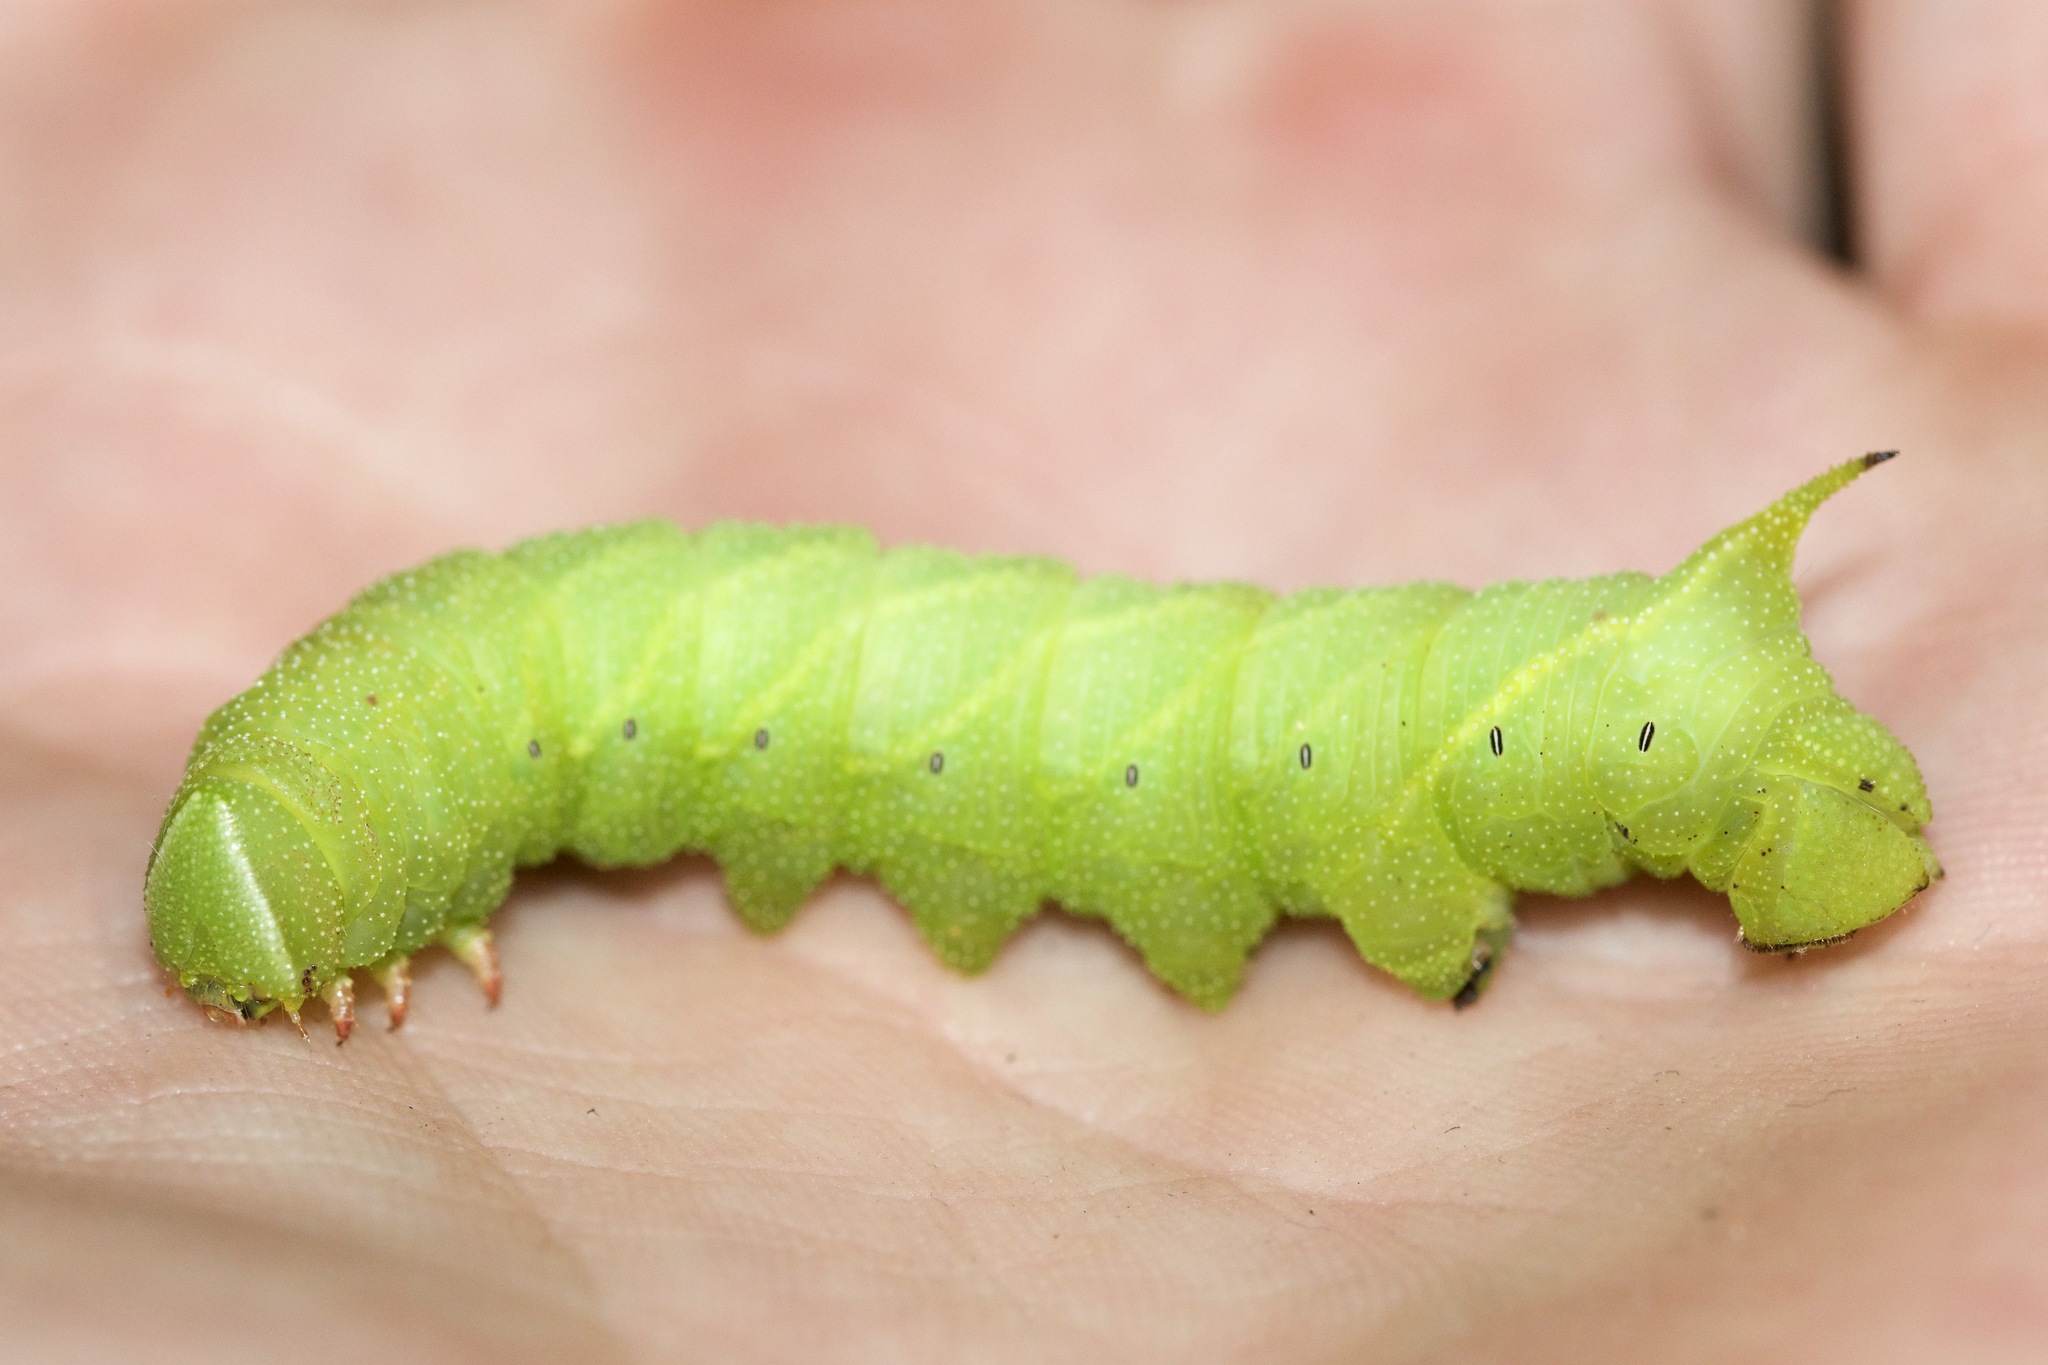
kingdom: Animalia
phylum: Arthropoda
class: Insecta
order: Lepidoptera
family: Sphingidae
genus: Paonias
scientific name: Paonias excaecata
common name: Blind-eyed sphinx
